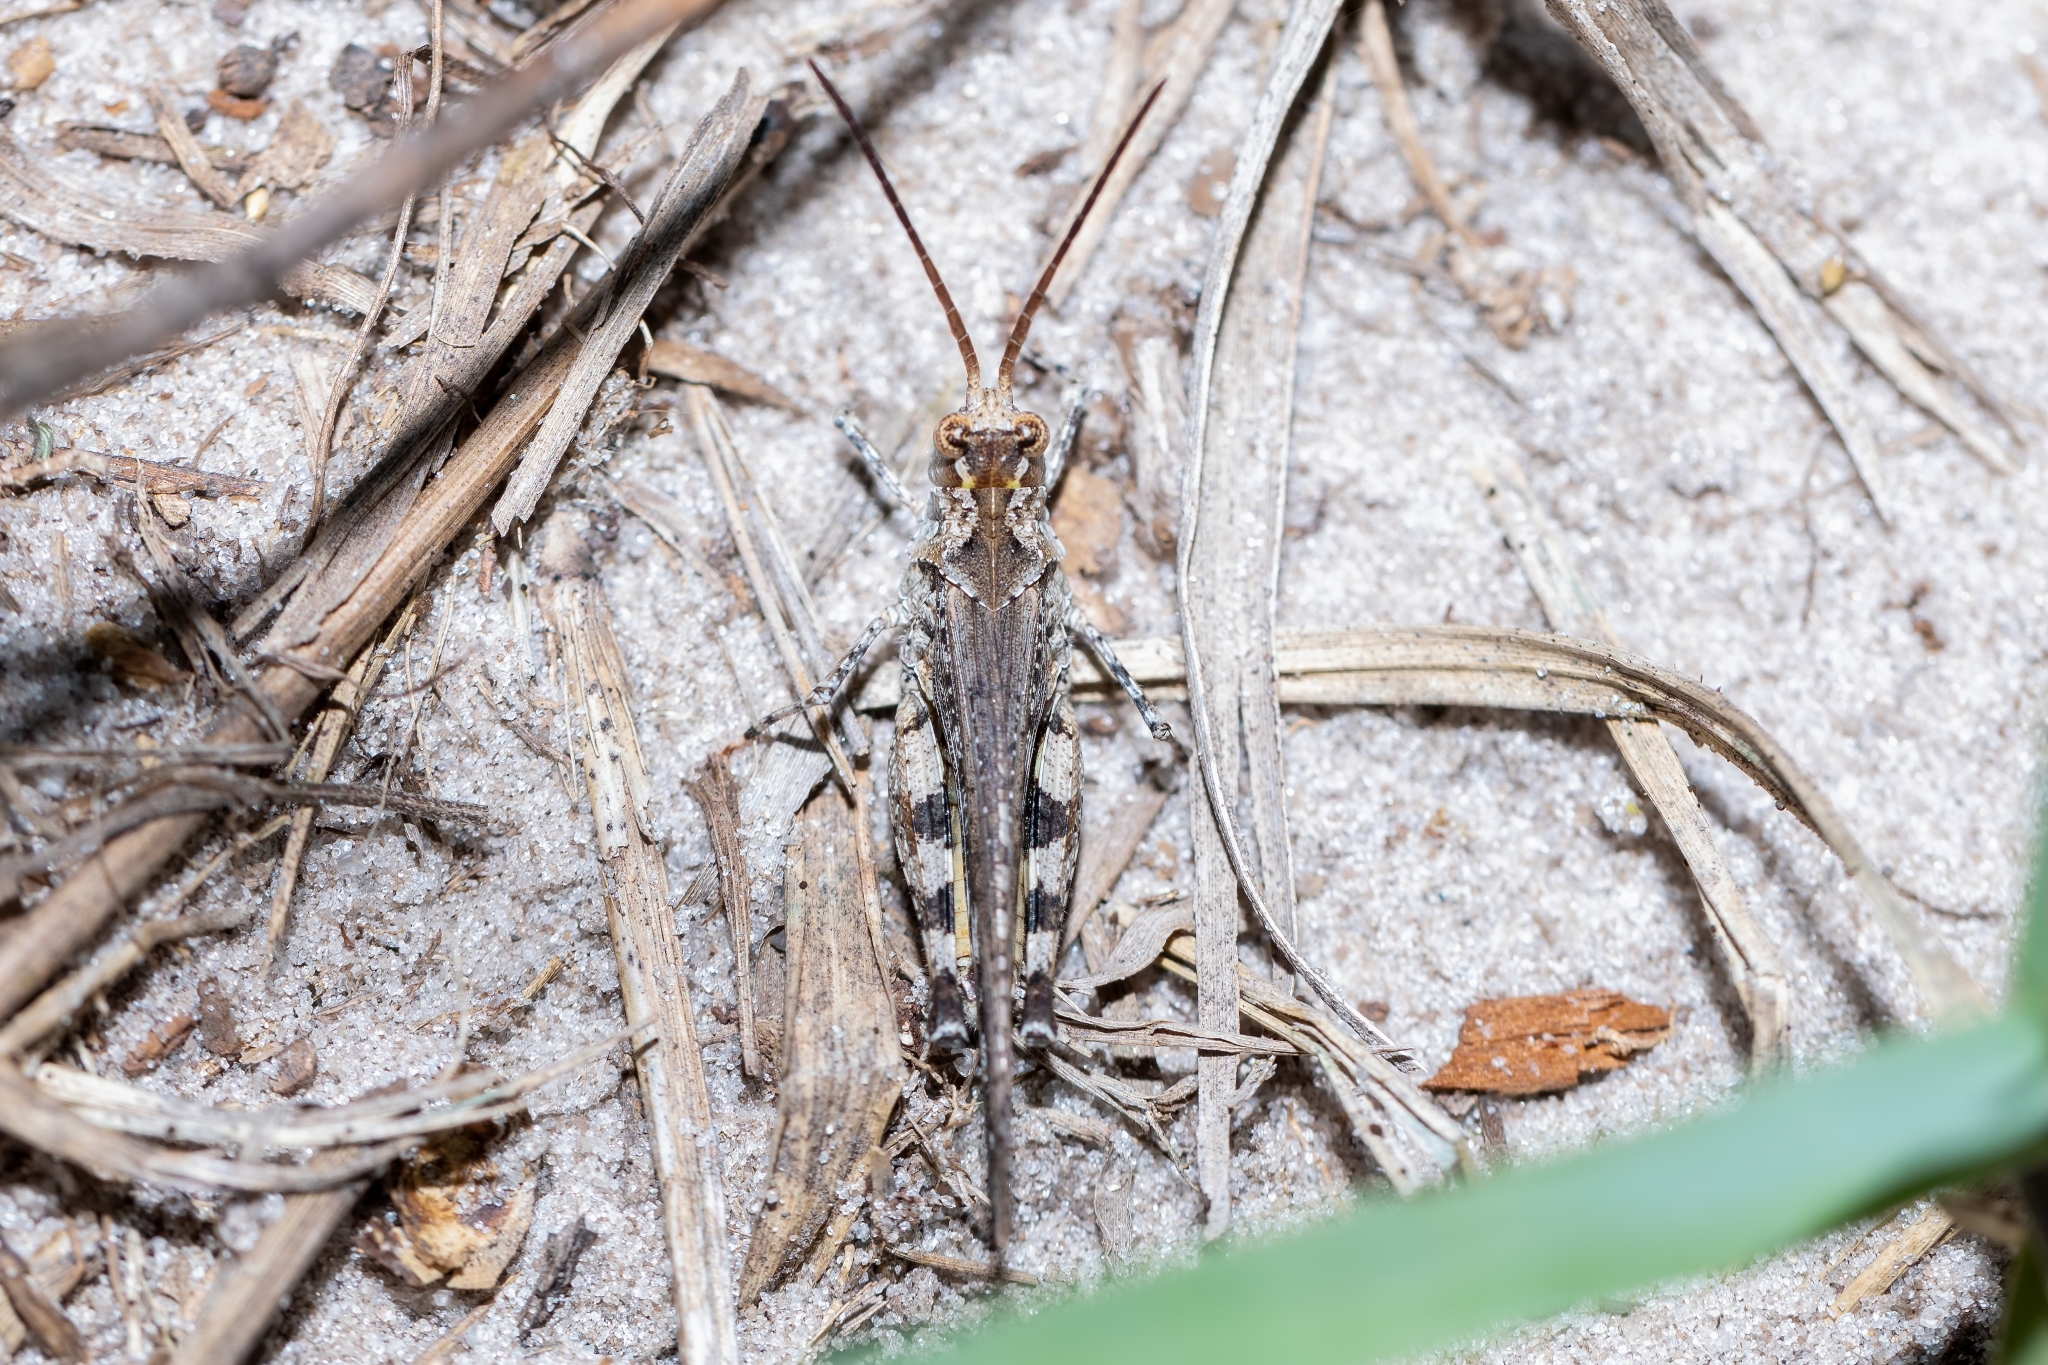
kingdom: Animalia
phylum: Arthropoda
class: Insecta
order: Orthoptera
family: Acrididae
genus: Psinidia
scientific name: Psinidia fenestralis
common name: Long-horned locust
